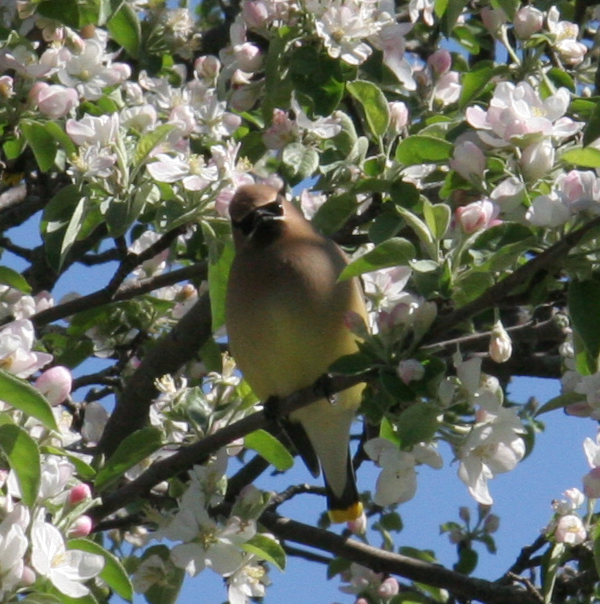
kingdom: Animalia
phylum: Chordata
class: Aves
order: Passeriformes
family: Bombycillidae
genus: Bombycilla
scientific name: Bombycilla cedrorum
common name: Cedar waxwing
